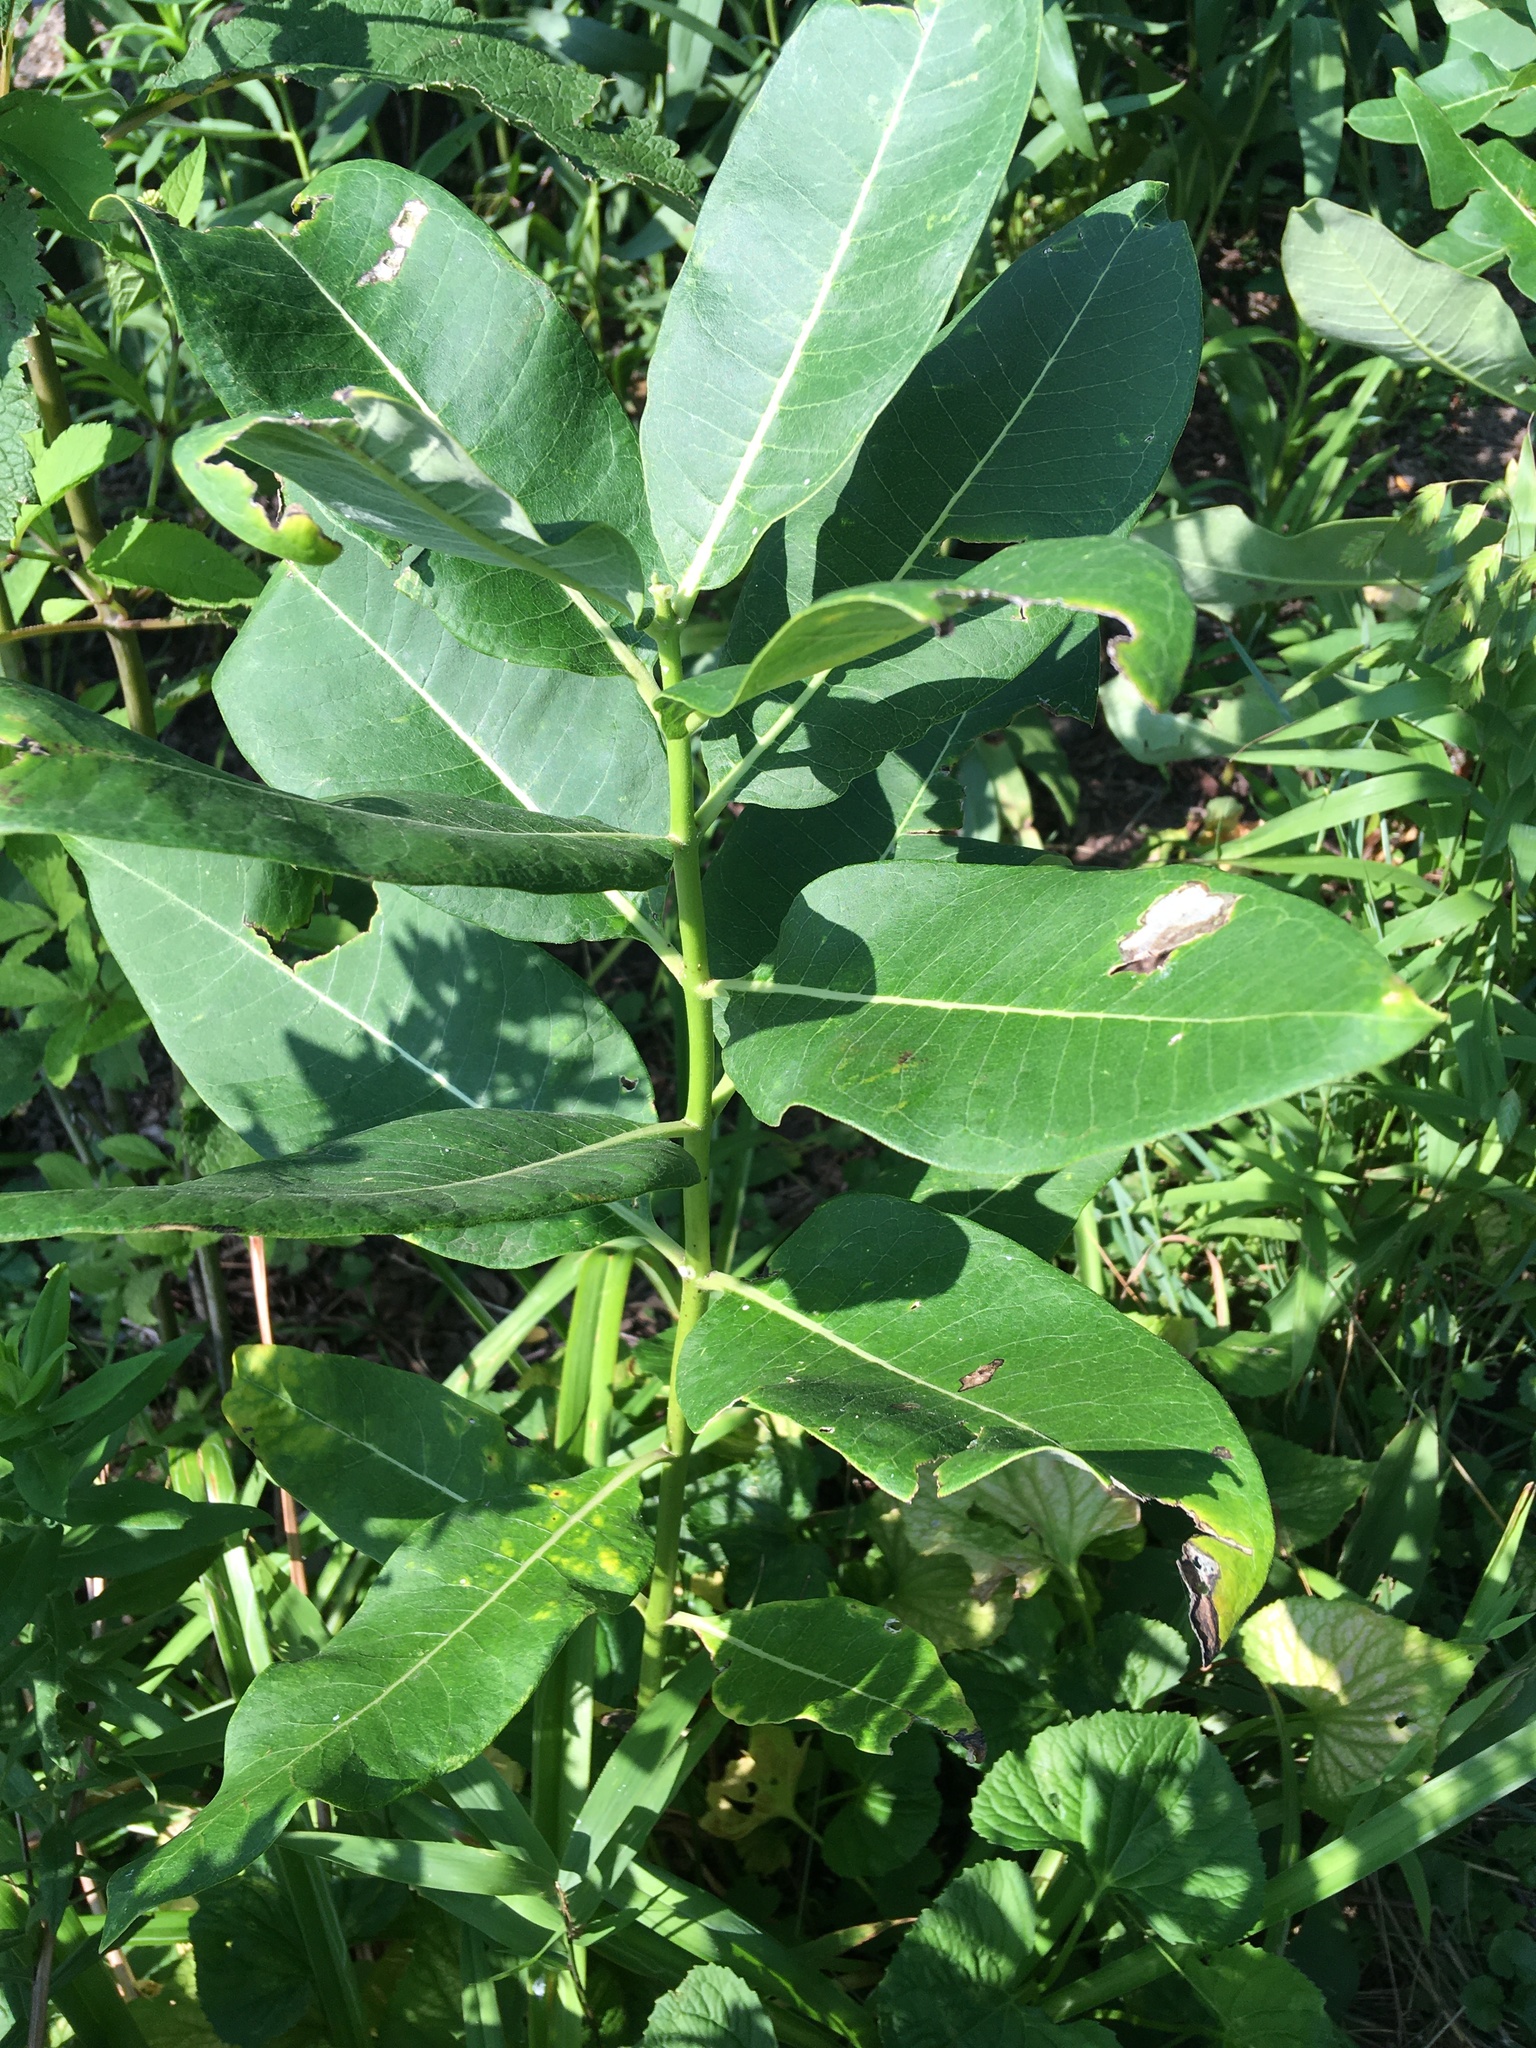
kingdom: Plantae
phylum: Tracheophyta
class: Magnoliopsida
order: Gentianales
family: Apocynaceae
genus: Asclepias
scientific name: Asclepias syriaca
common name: Common milkweed
